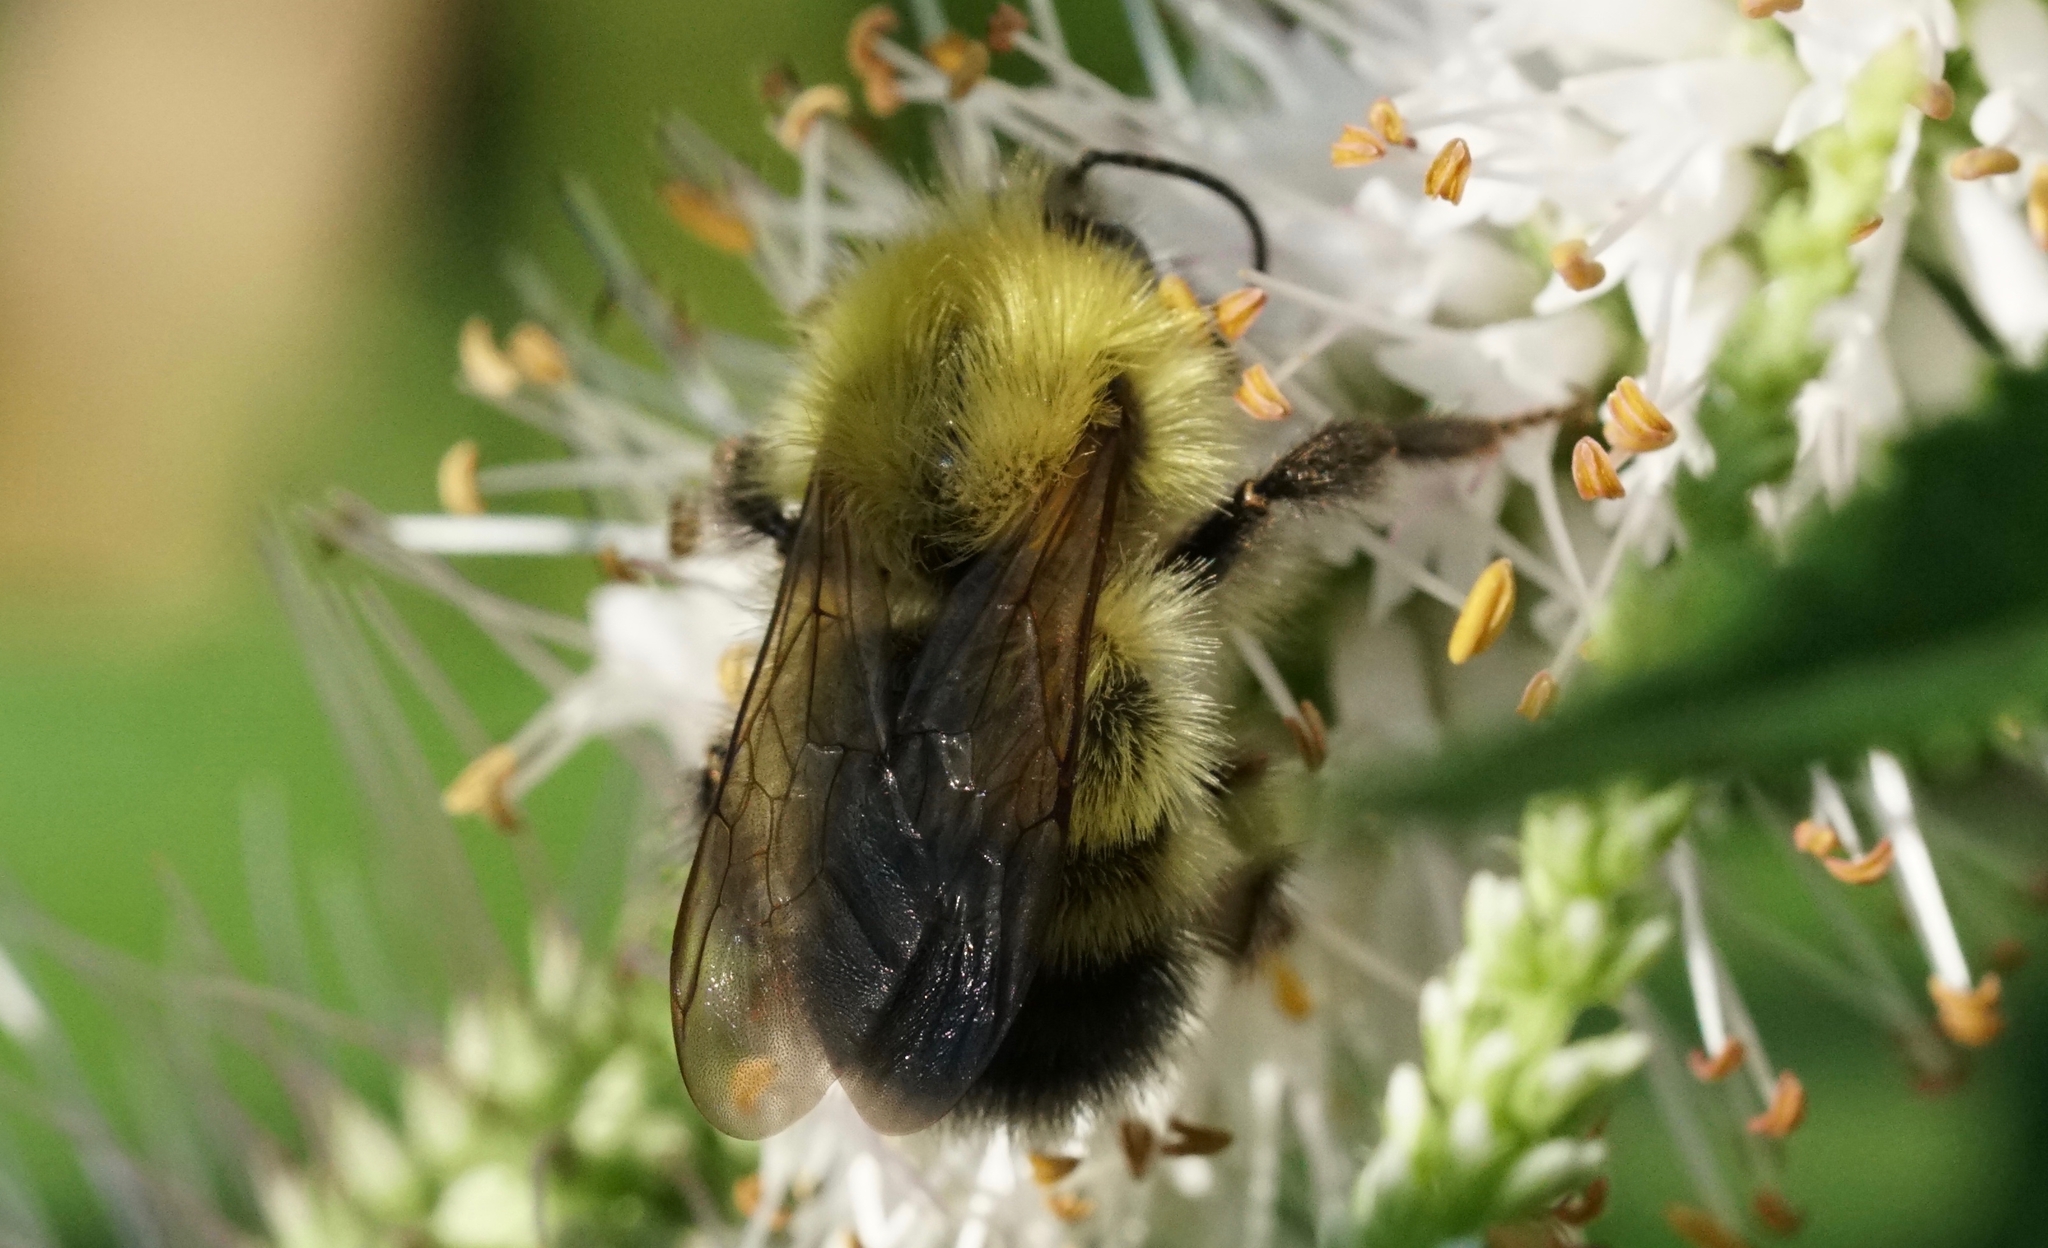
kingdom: Animalia
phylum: Arthropoda
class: Insecta
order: Hymenoptera
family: Apidae
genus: Bombus
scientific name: Bombus perplexus
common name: Confusing bumble bee
